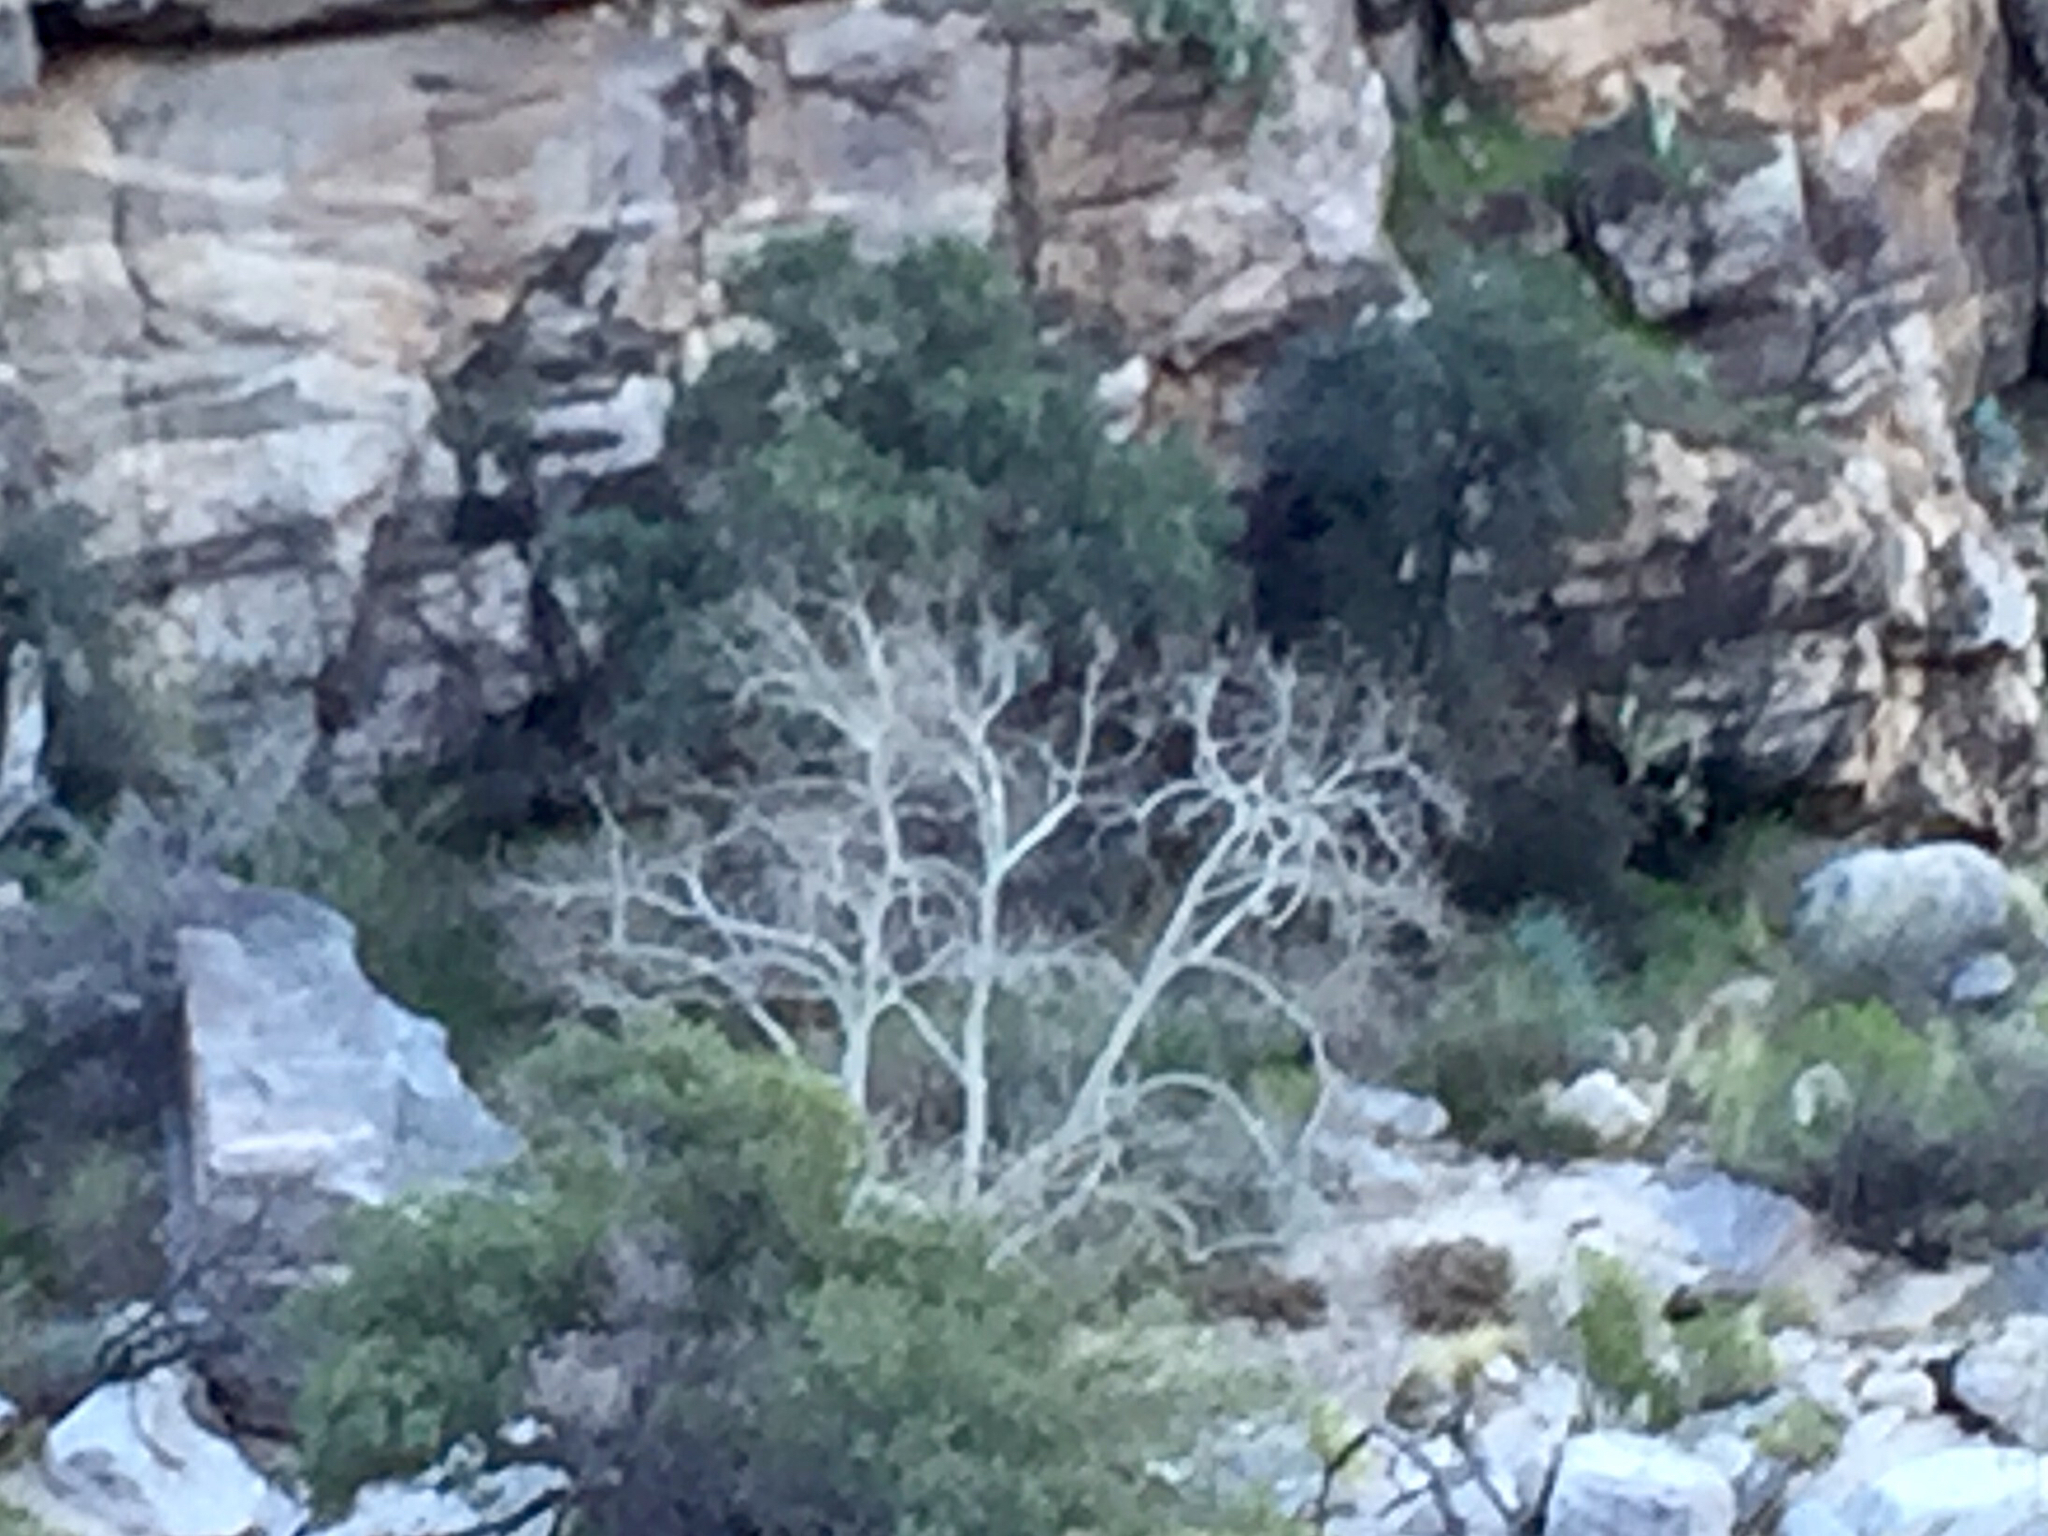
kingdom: Plantae
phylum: Tracheophyta
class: Magnoliopsida
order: Proteales
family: Platanaceae
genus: Platanus
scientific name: Platanus wrightii
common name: Arizona sycamore
